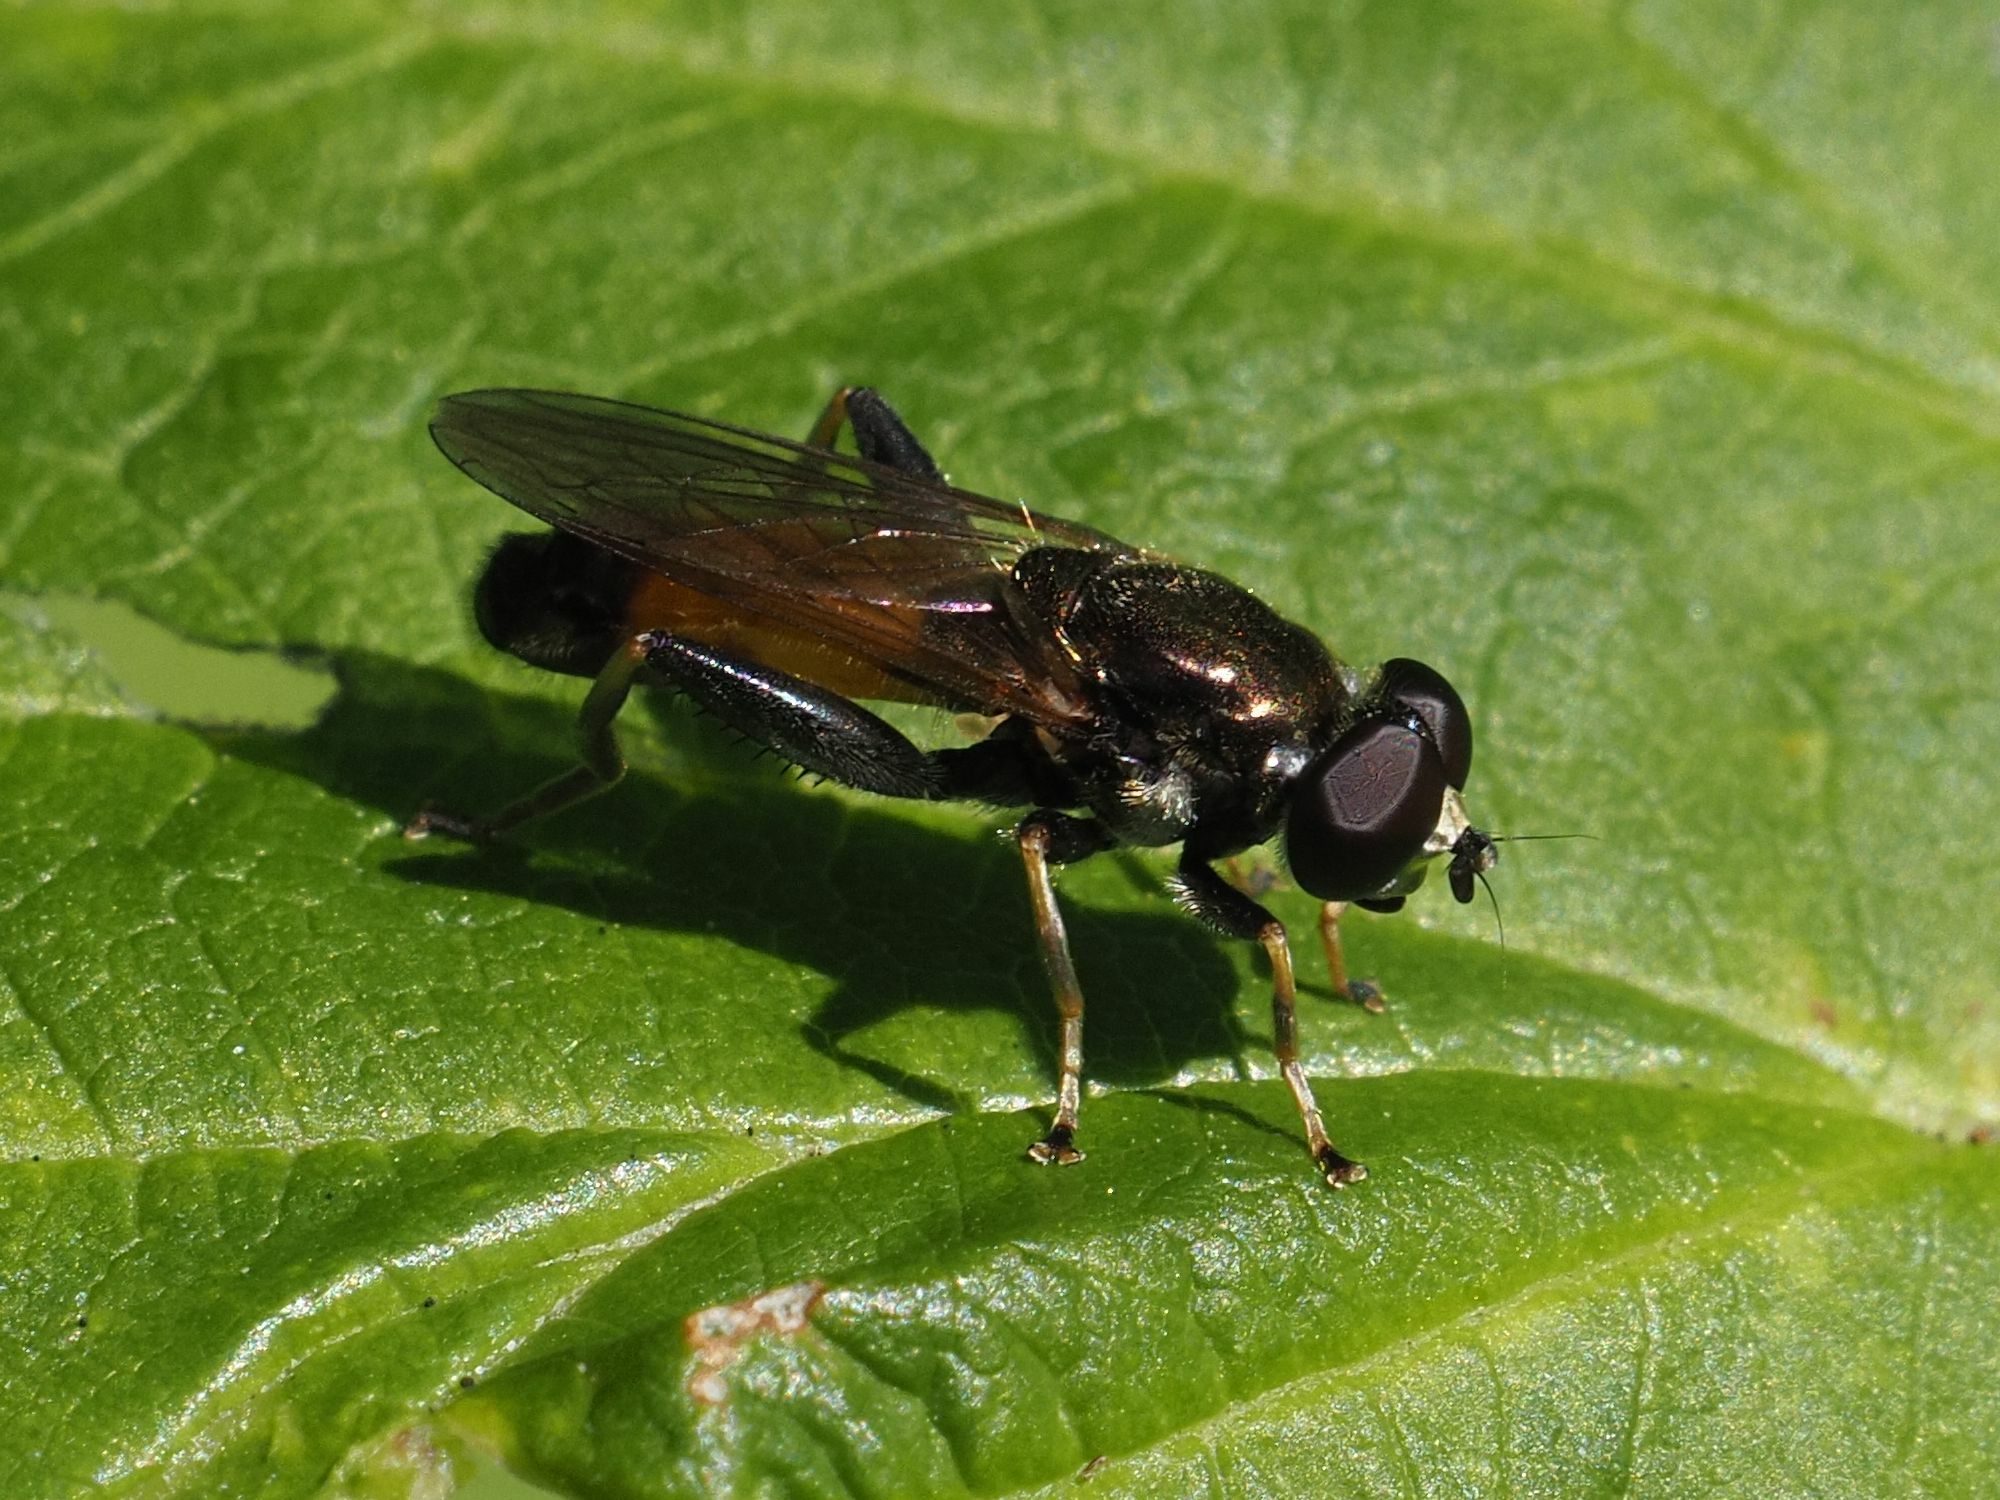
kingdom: Animalia
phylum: Arthropoda
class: Insecta
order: Diptera
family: Syrphidae
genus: Xylota
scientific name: Xylota segnis
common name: Brown-toed forest fly
